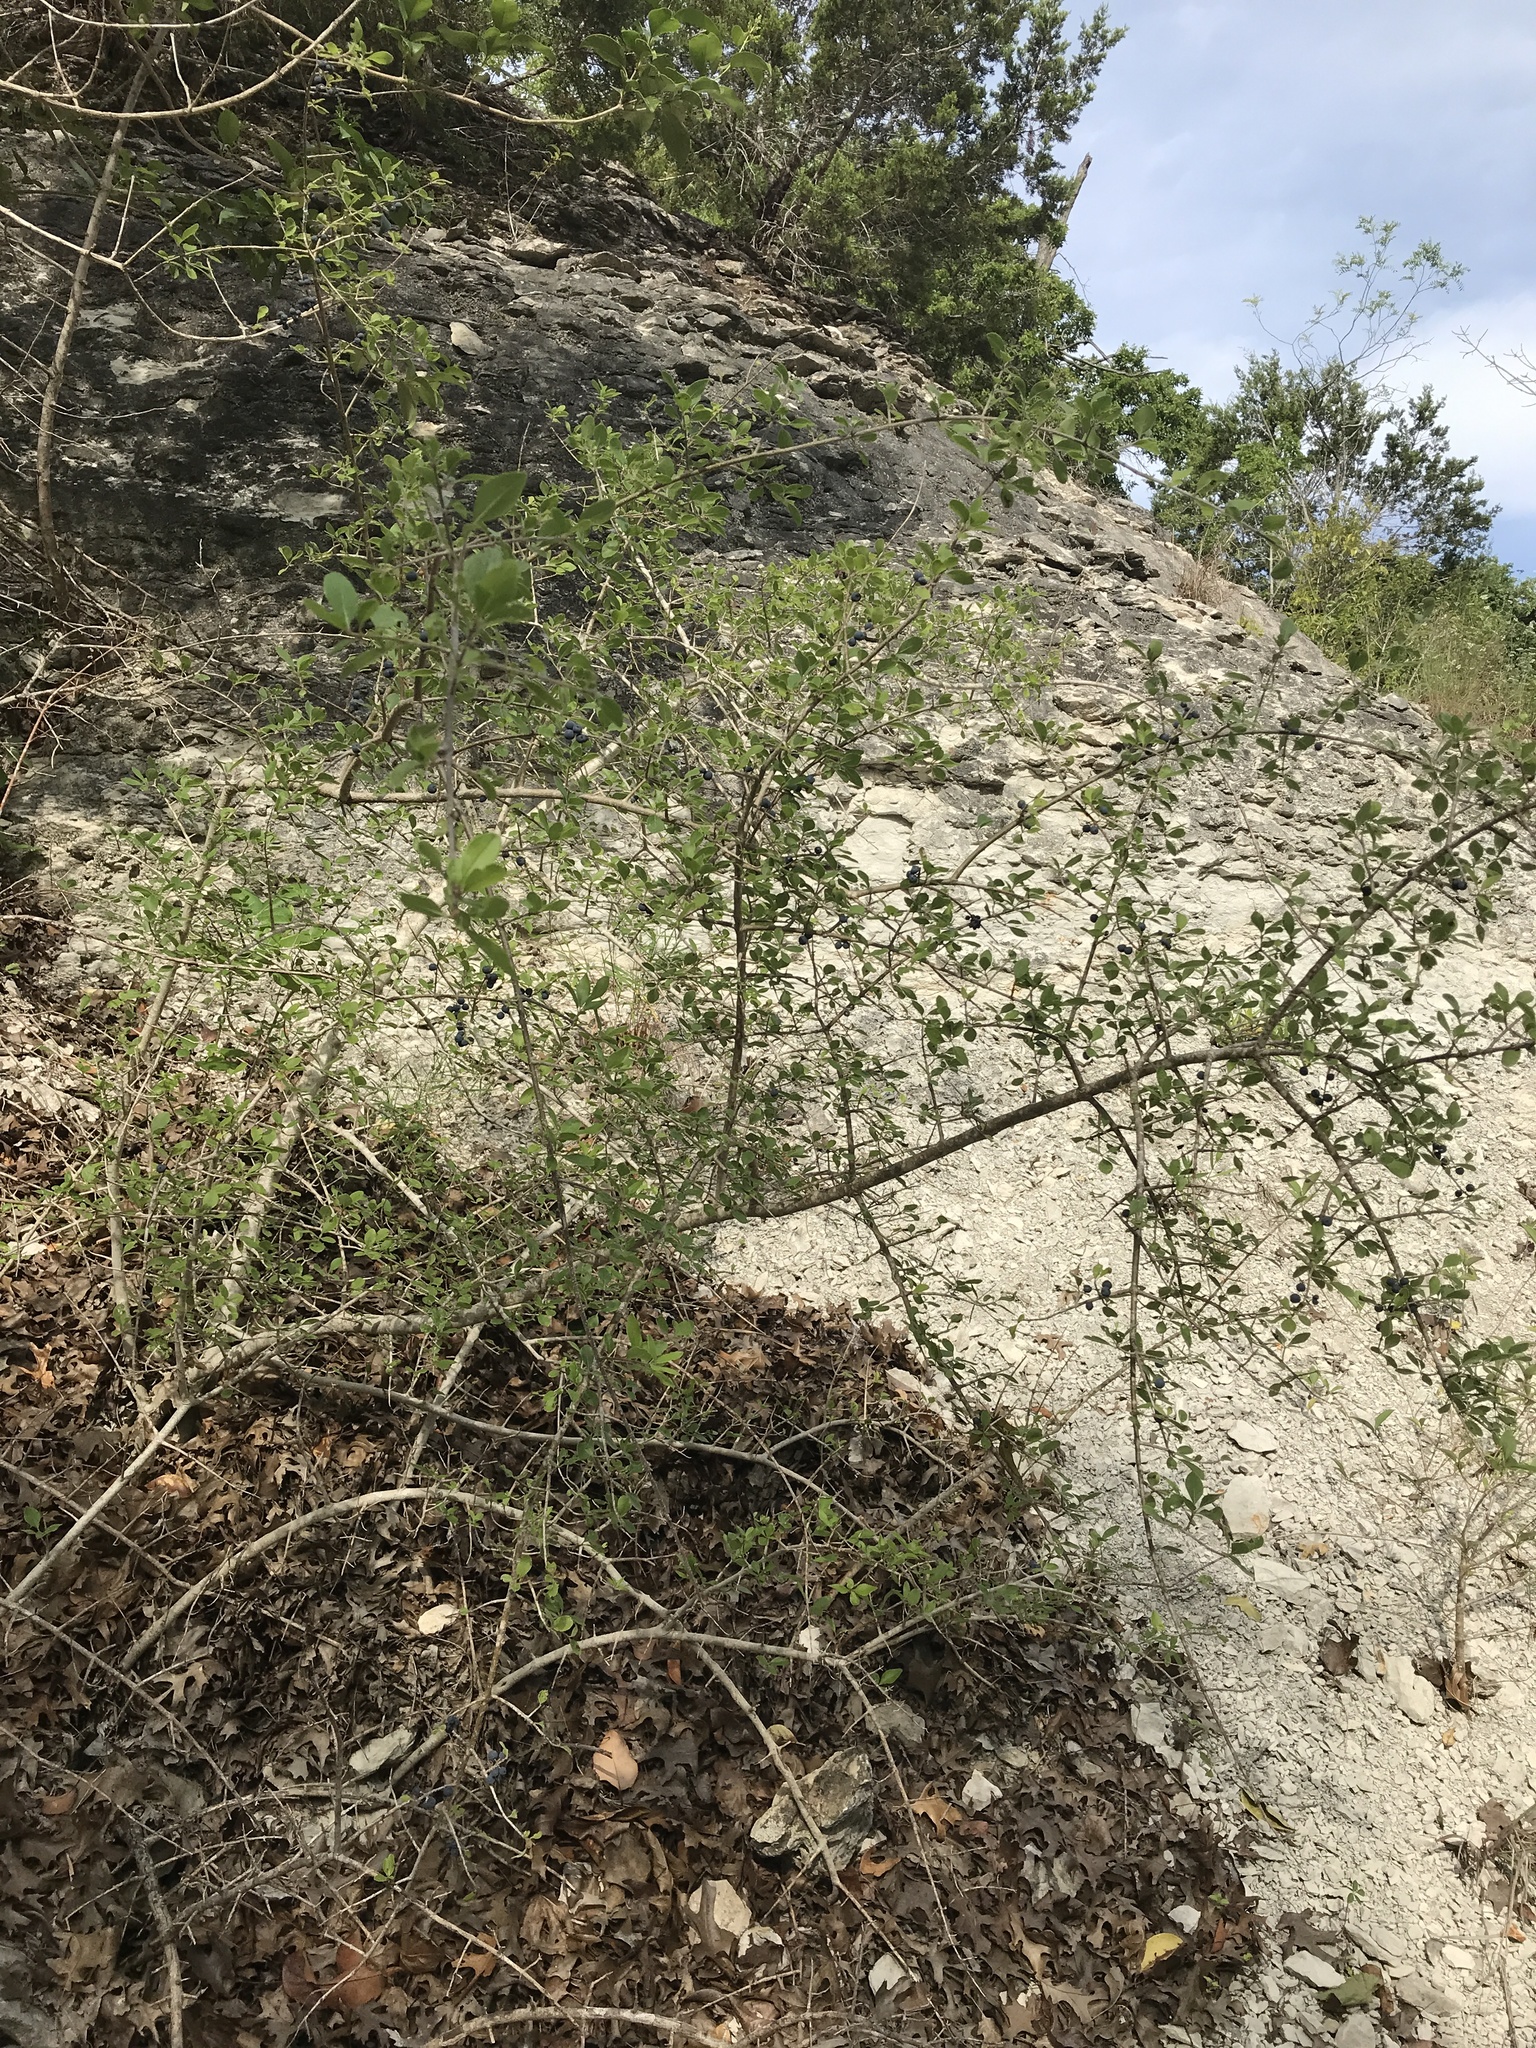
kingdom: Plantae
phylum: Tracheophyta
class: Magnoliopsida
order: Lamiales
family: Oleaceae
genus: Forestiera
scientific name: Forestiera pubescens
